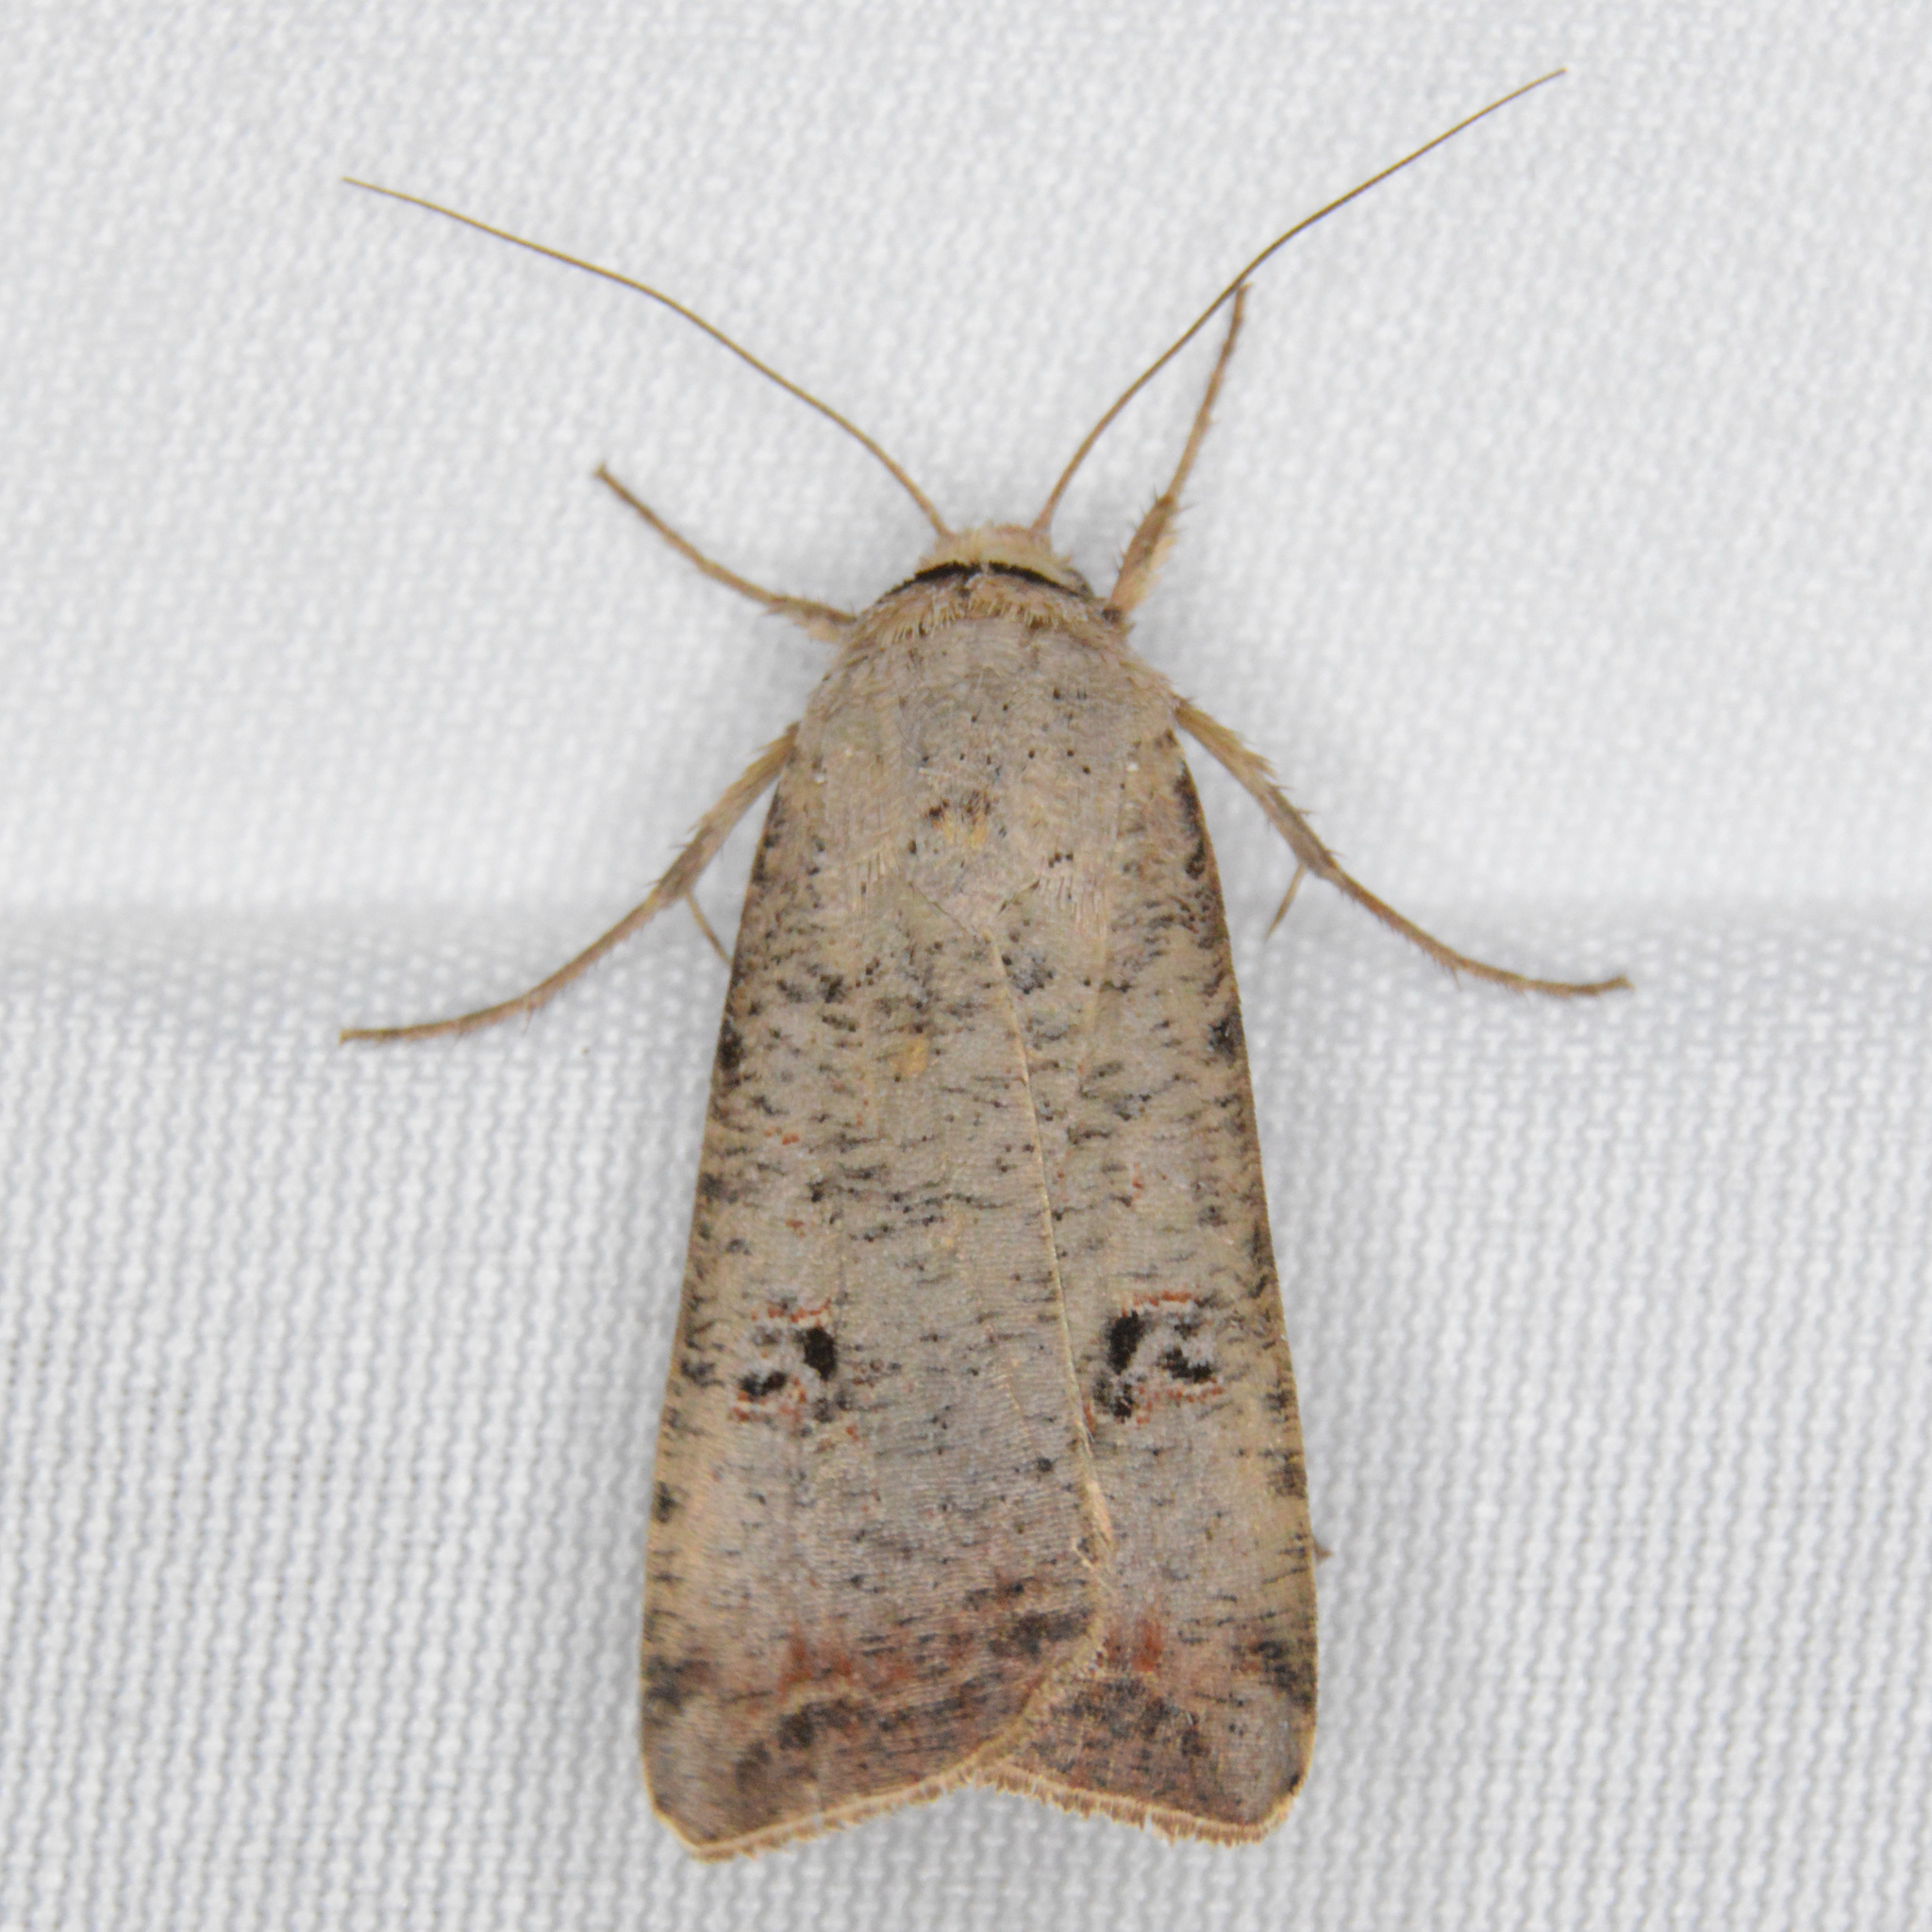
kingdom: Animalia
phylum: Arthropoda
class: Insecta
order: Lepidoptera
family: Noctuidae
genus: Anicla
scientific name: Anicla infecta
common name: Green cutworm
